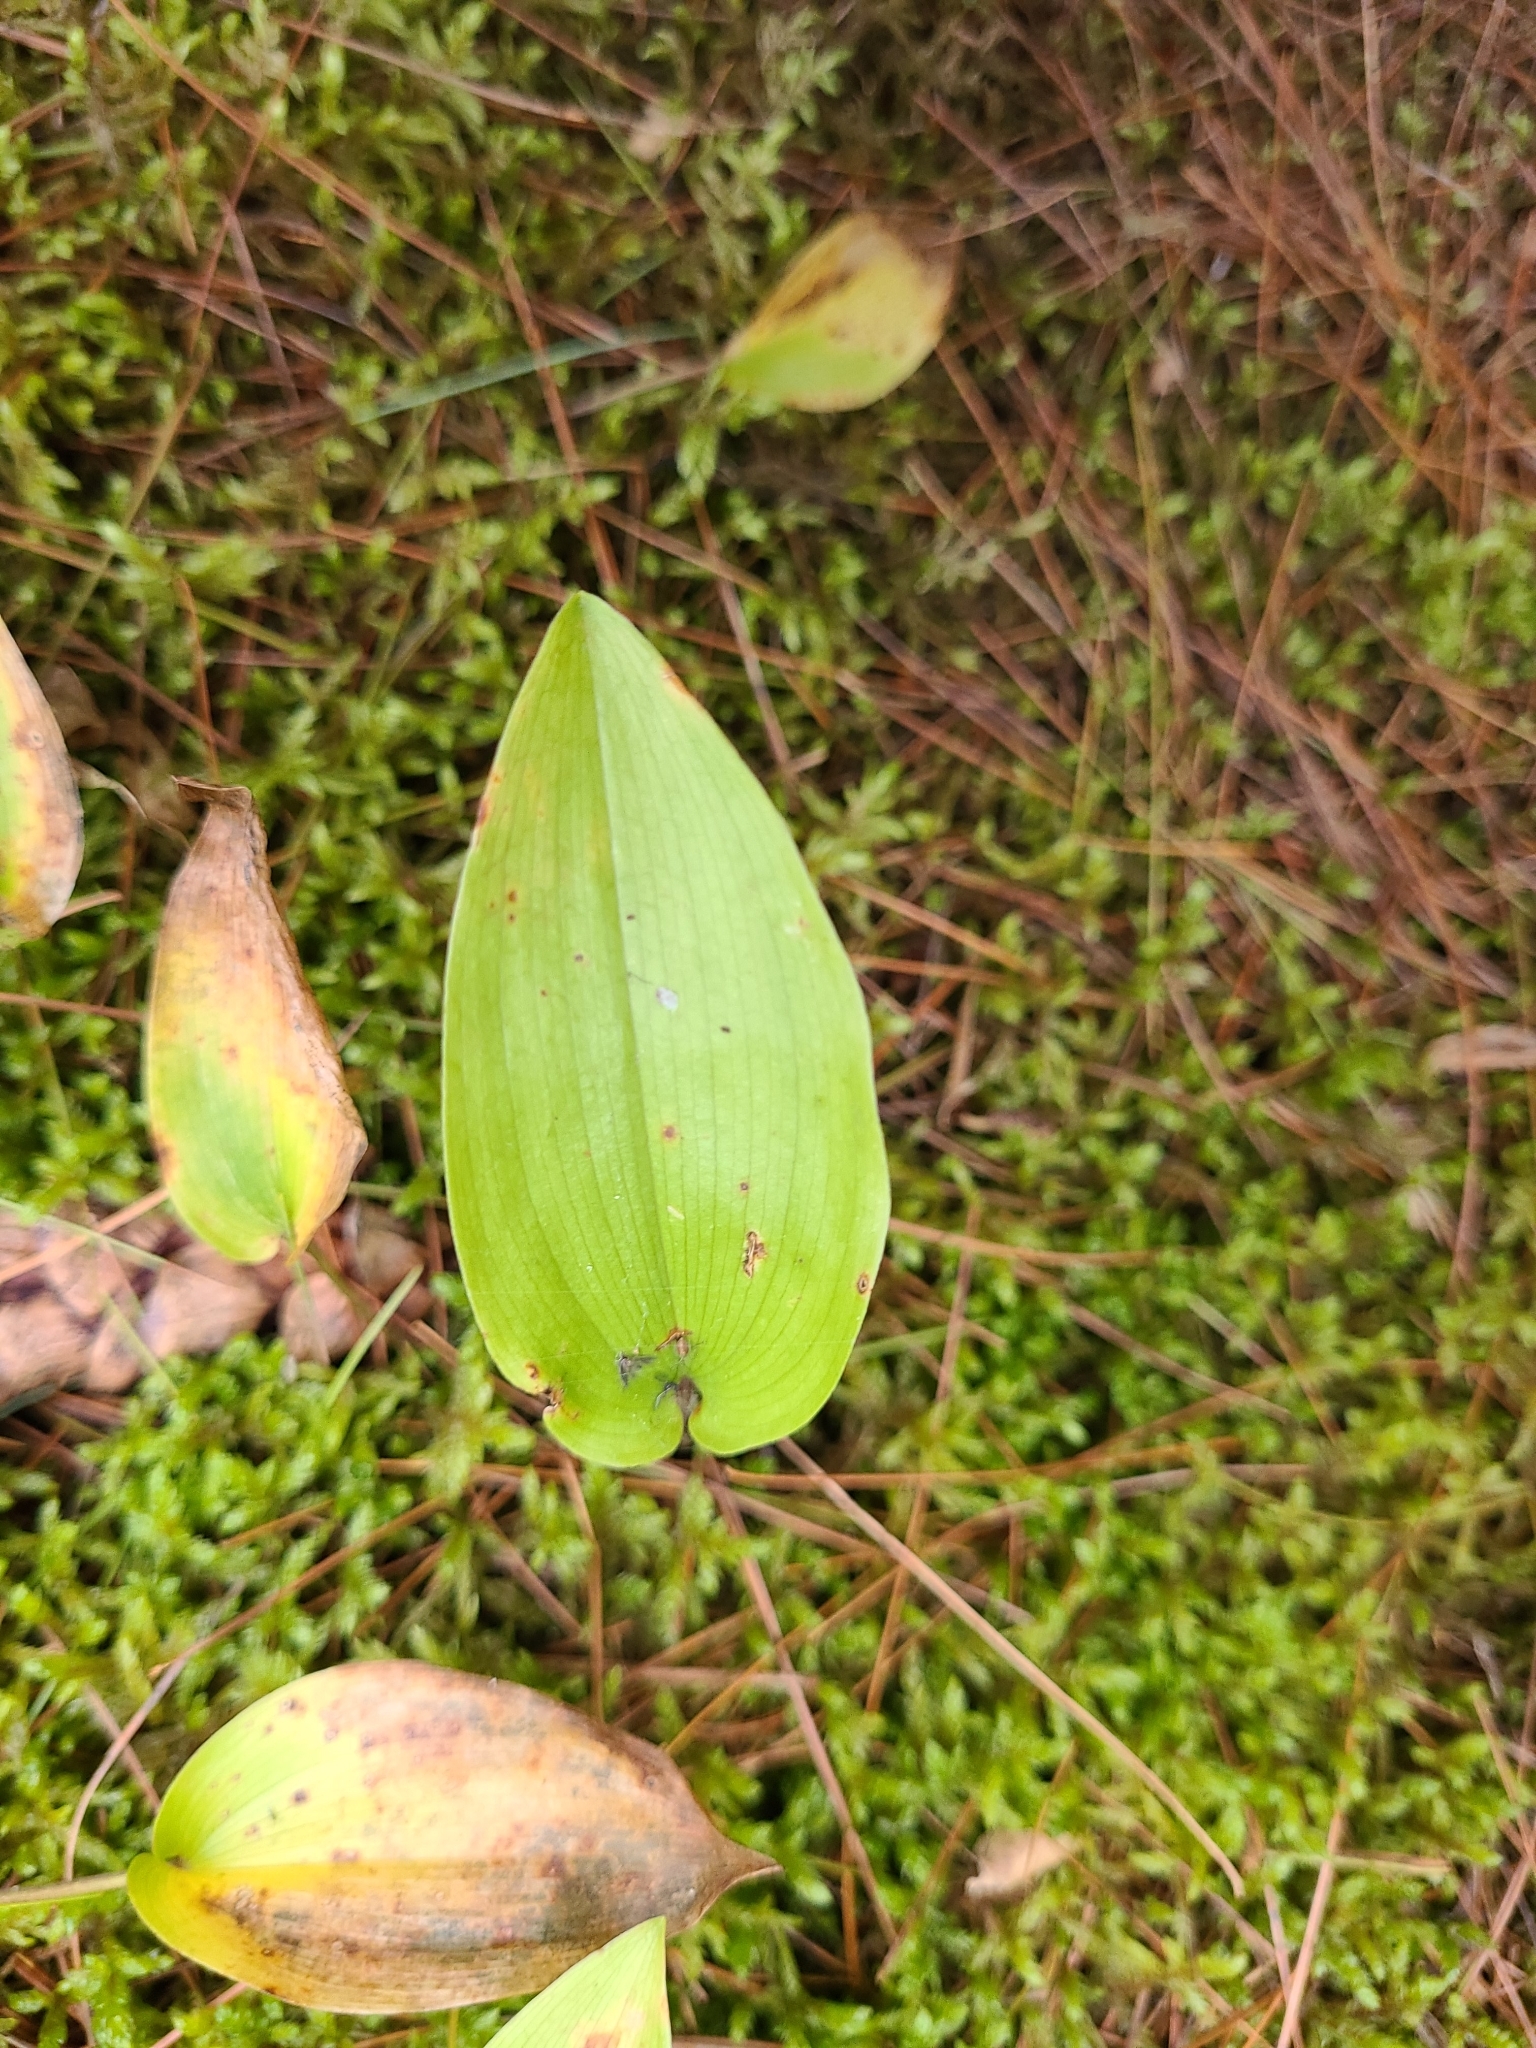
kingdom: Plantae
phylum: Tracheophyta
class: Liliopsida
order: Asparagales
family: Asparagaceae
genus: Maianthemum
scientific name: Maianthemum canadense
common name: False lily-of-the-valley
